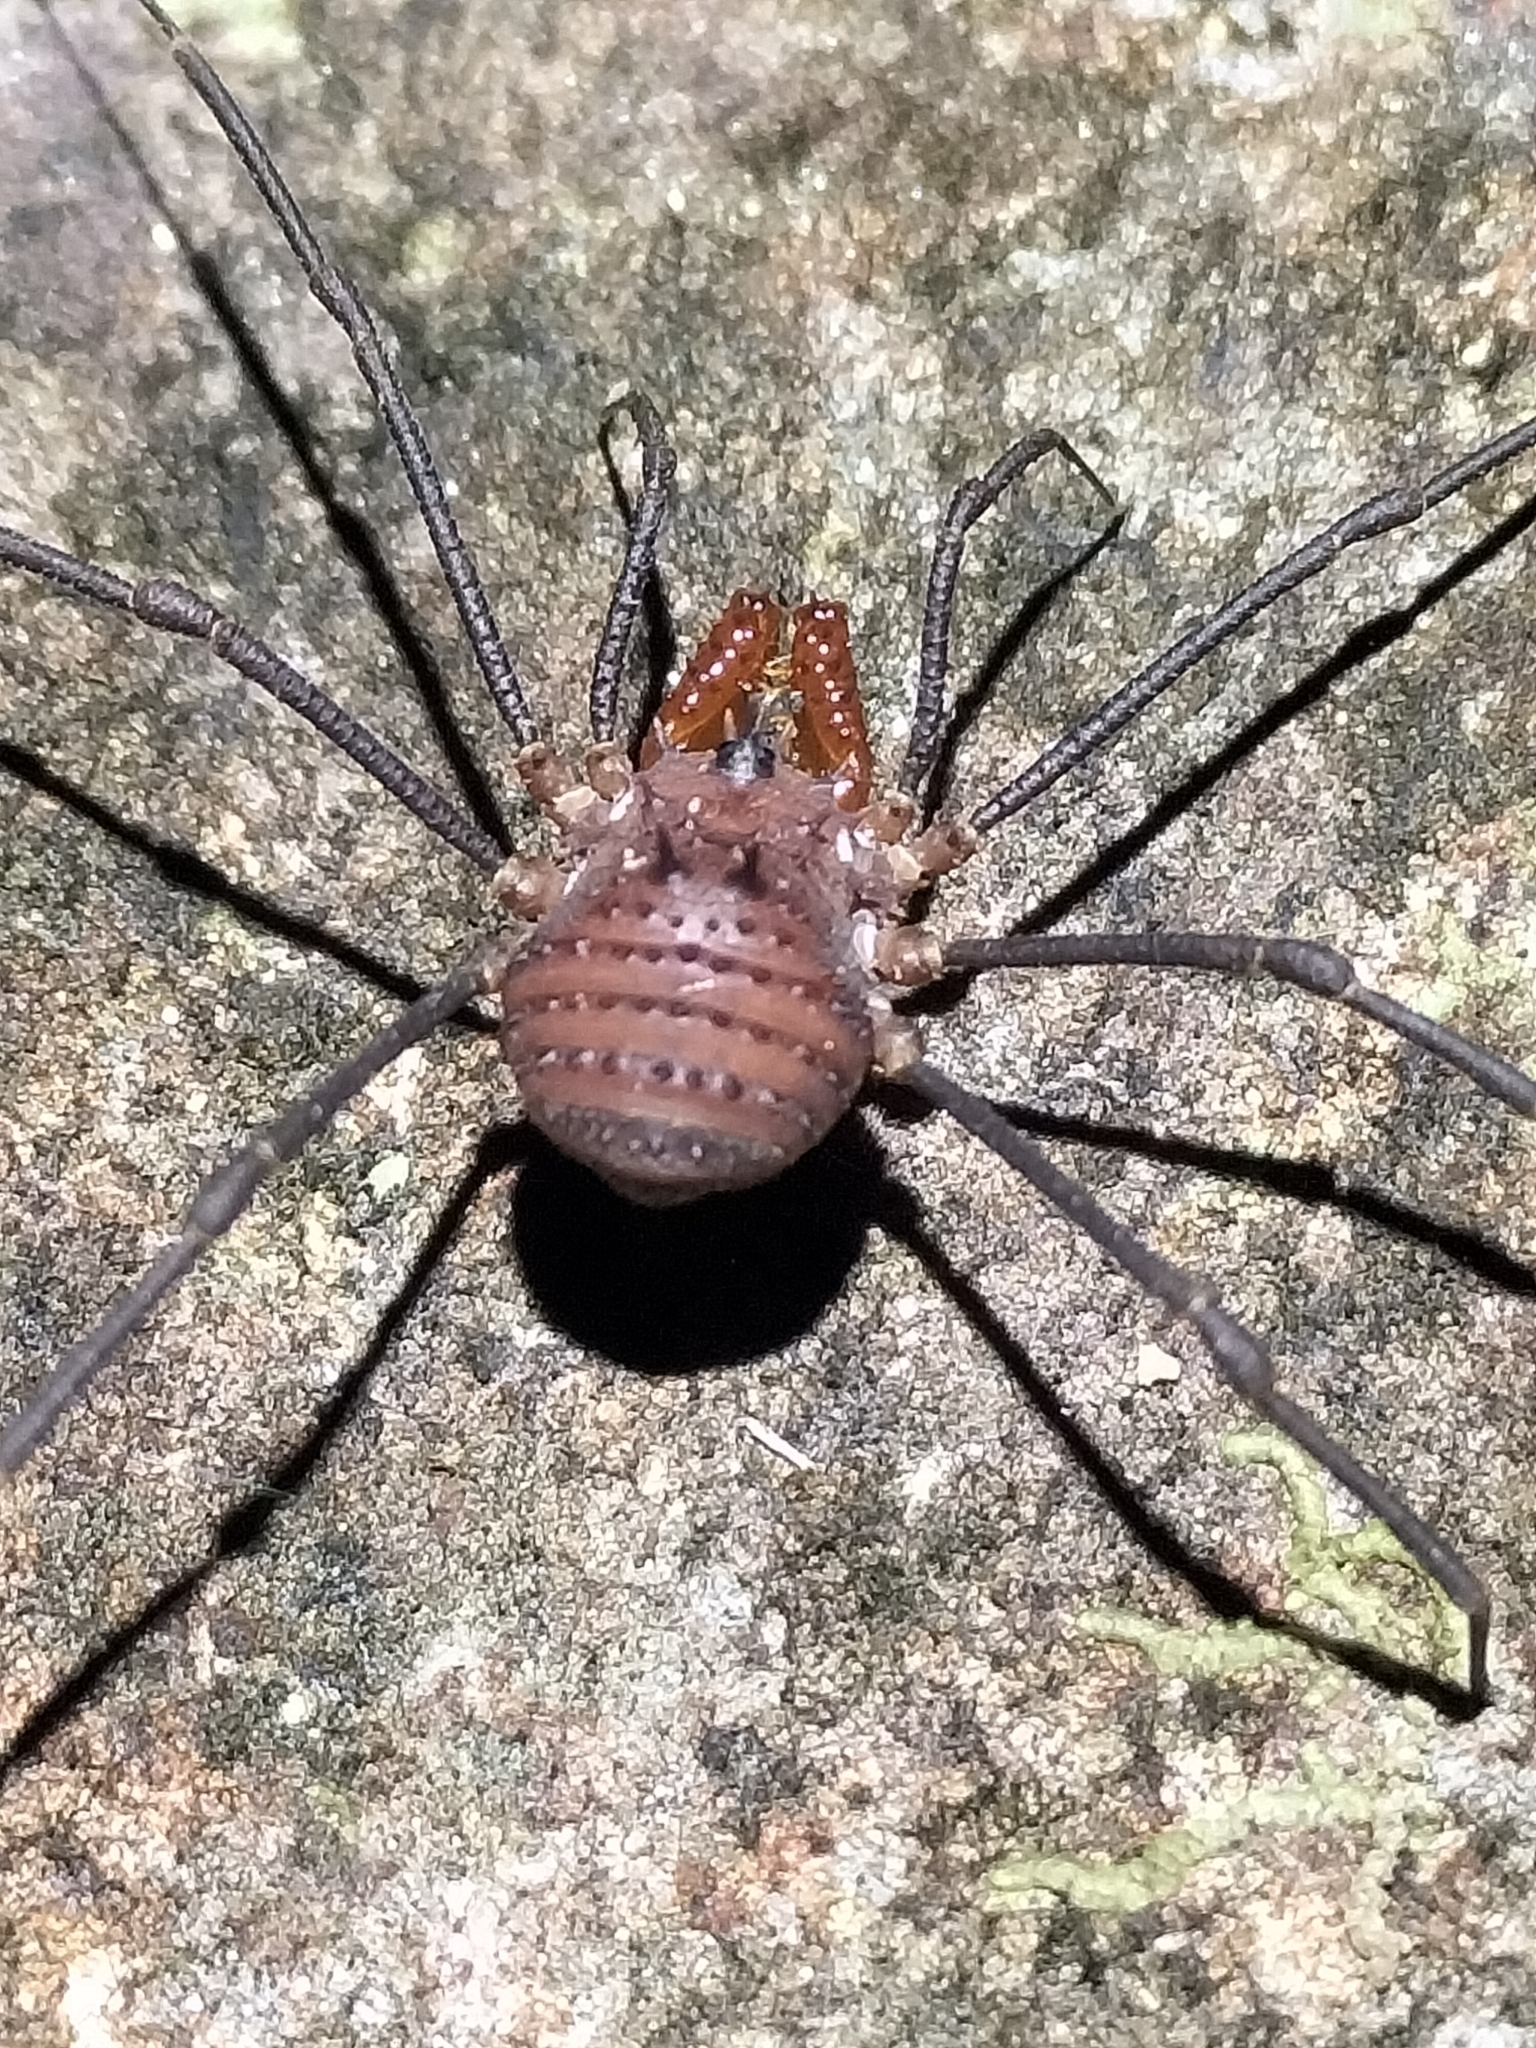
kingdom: Animalia
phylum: Arthropoda
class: Arachnida
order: Opiliones
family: Triaenonychidae
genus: Heteronuncia
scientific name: Heteronuncia robusta
